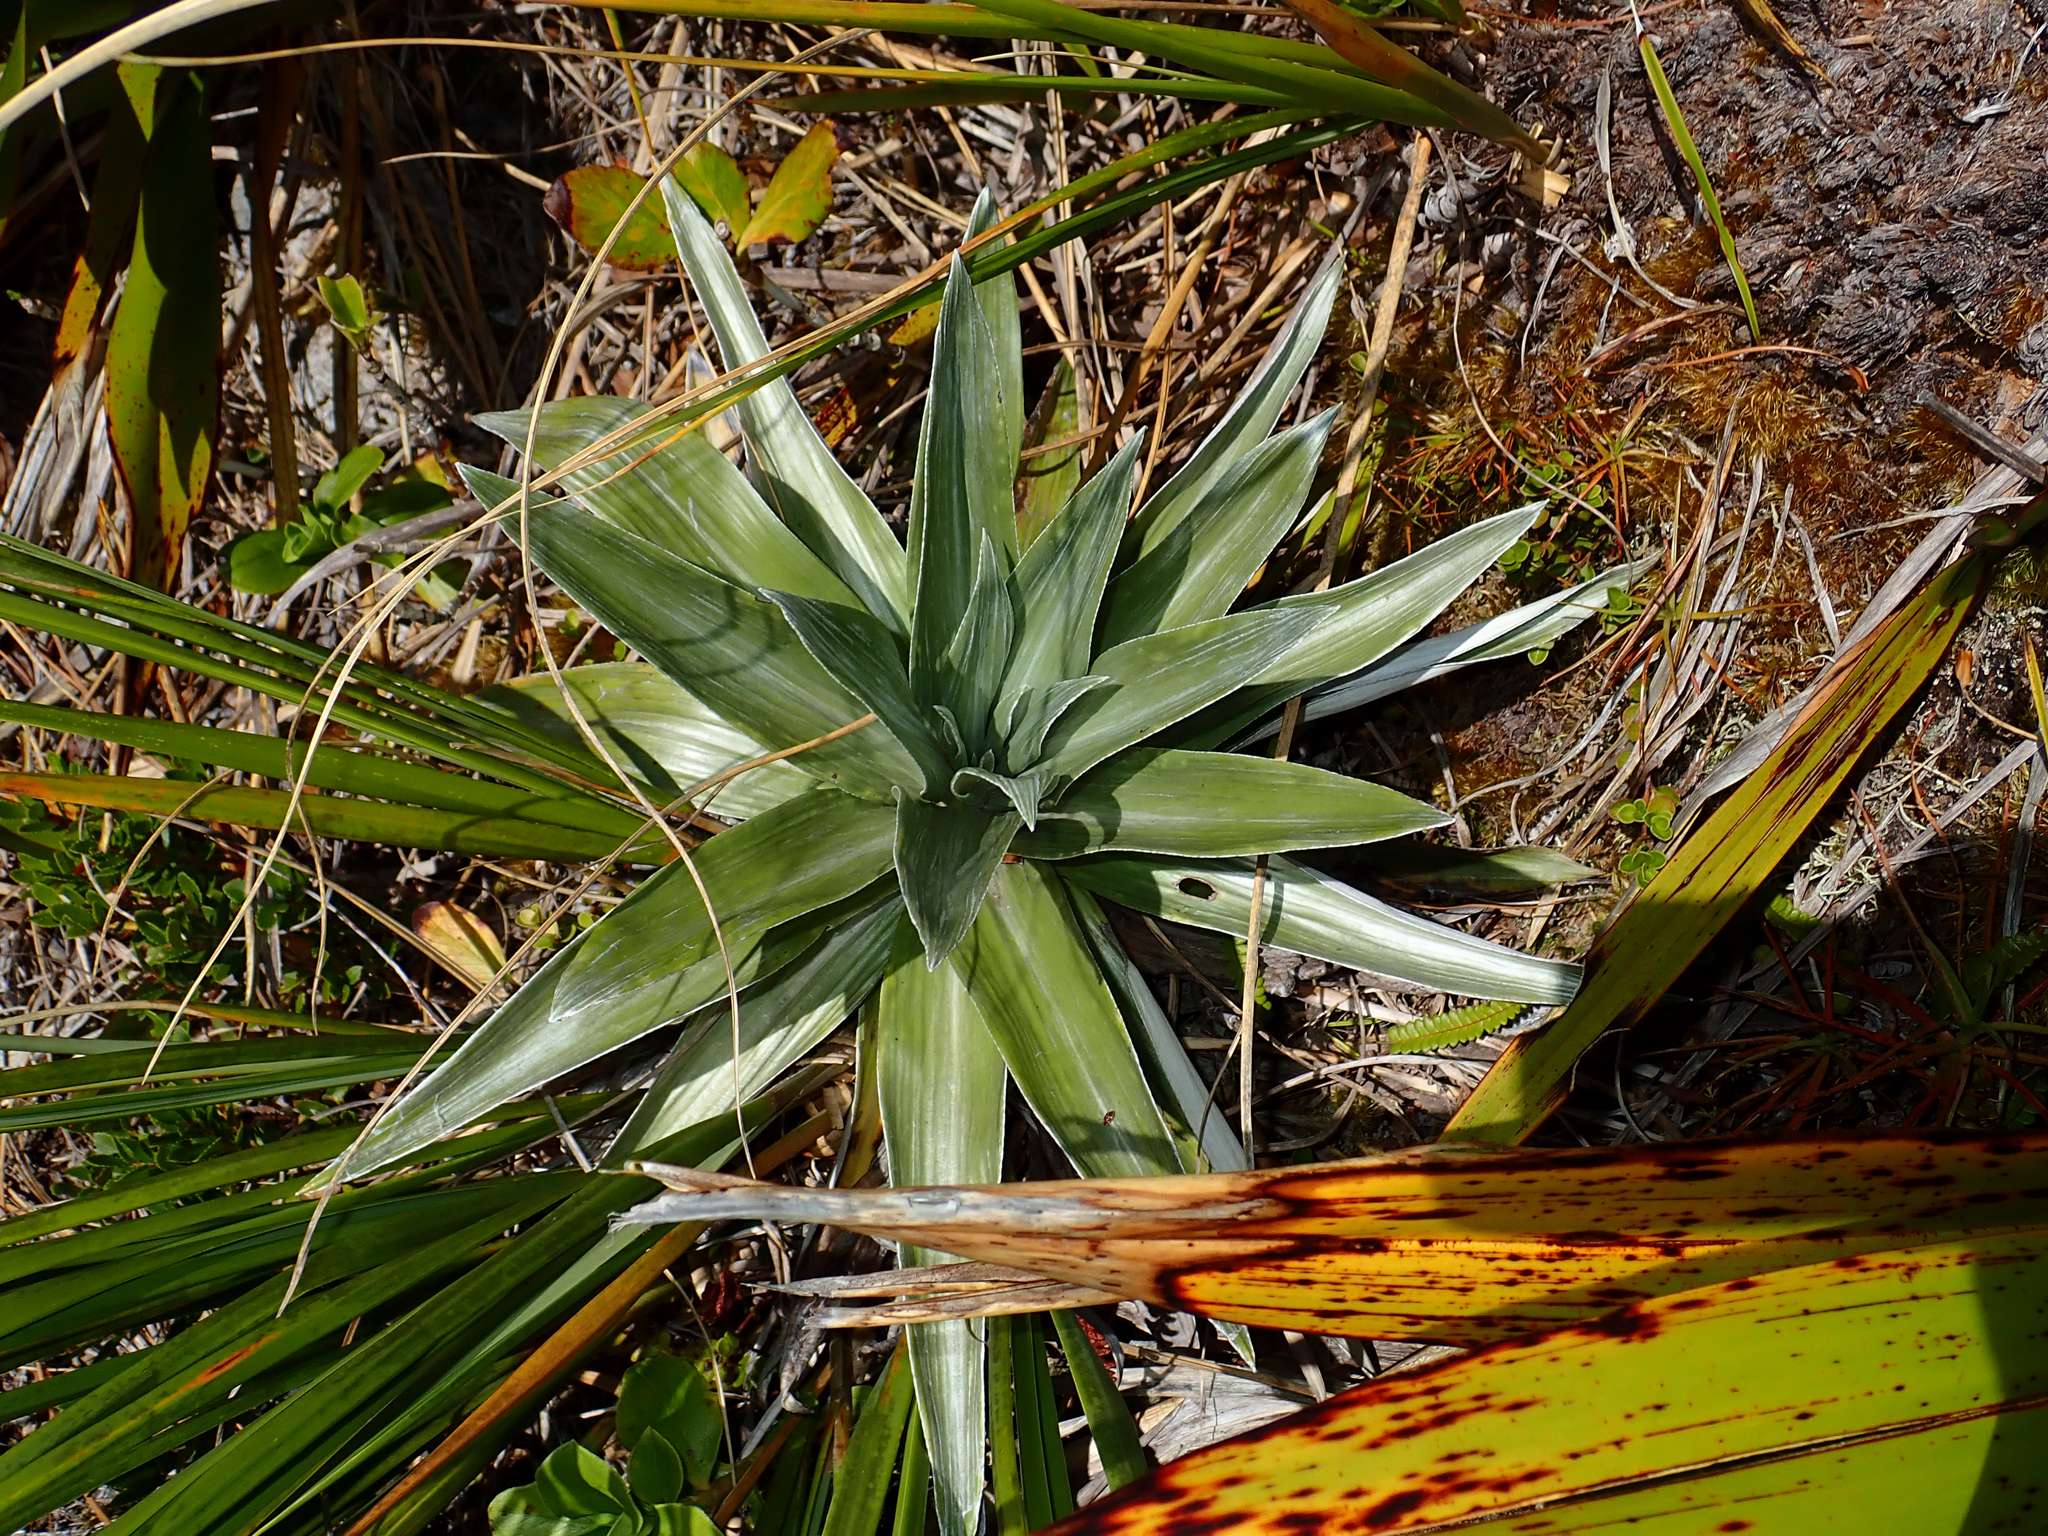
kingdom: Plantae
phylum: Tracheophyta
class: Magnoliopsida
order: Asterales
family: Asteraceae
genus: Celmisia
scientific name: Celmisia semicordata
